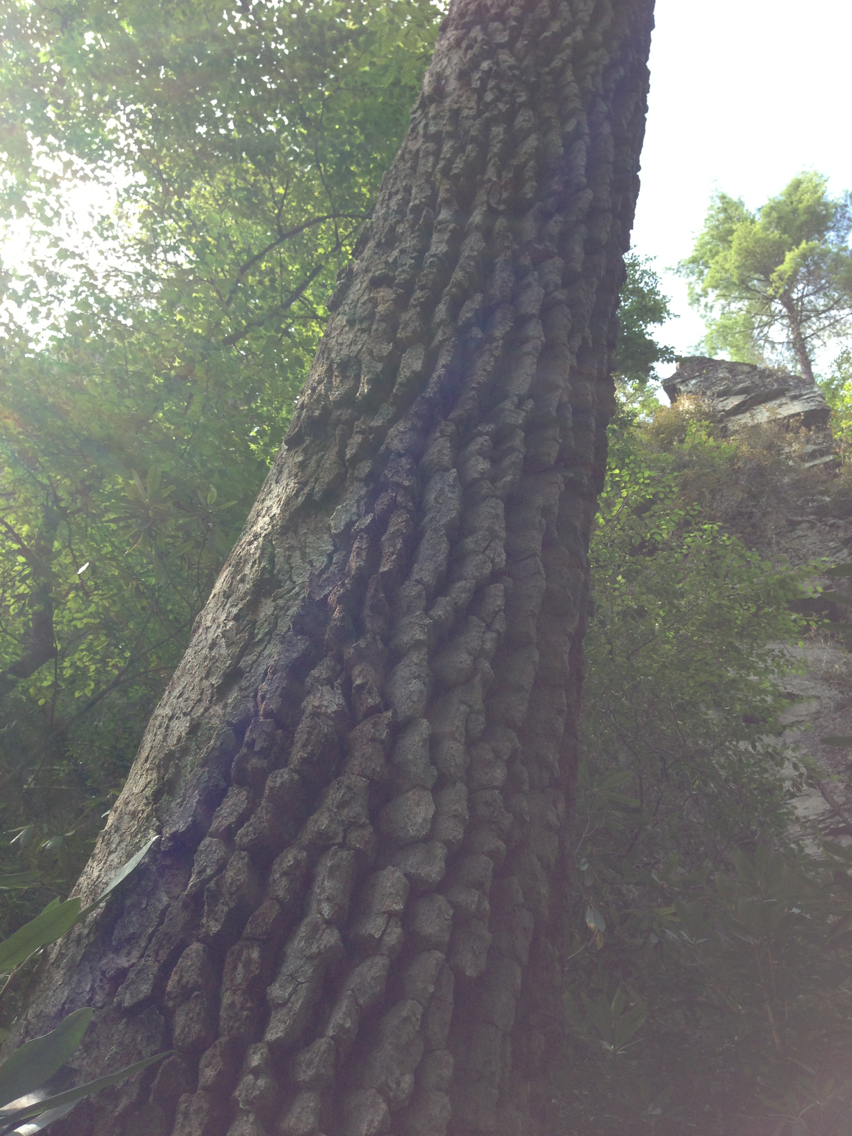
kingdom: Plantae
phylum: Tracheophyta
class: Magnoliopsida
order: Cornales
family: Nyssaceae
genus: Nyssa
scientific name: Nyssa sylvatica
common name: Black tupelo
